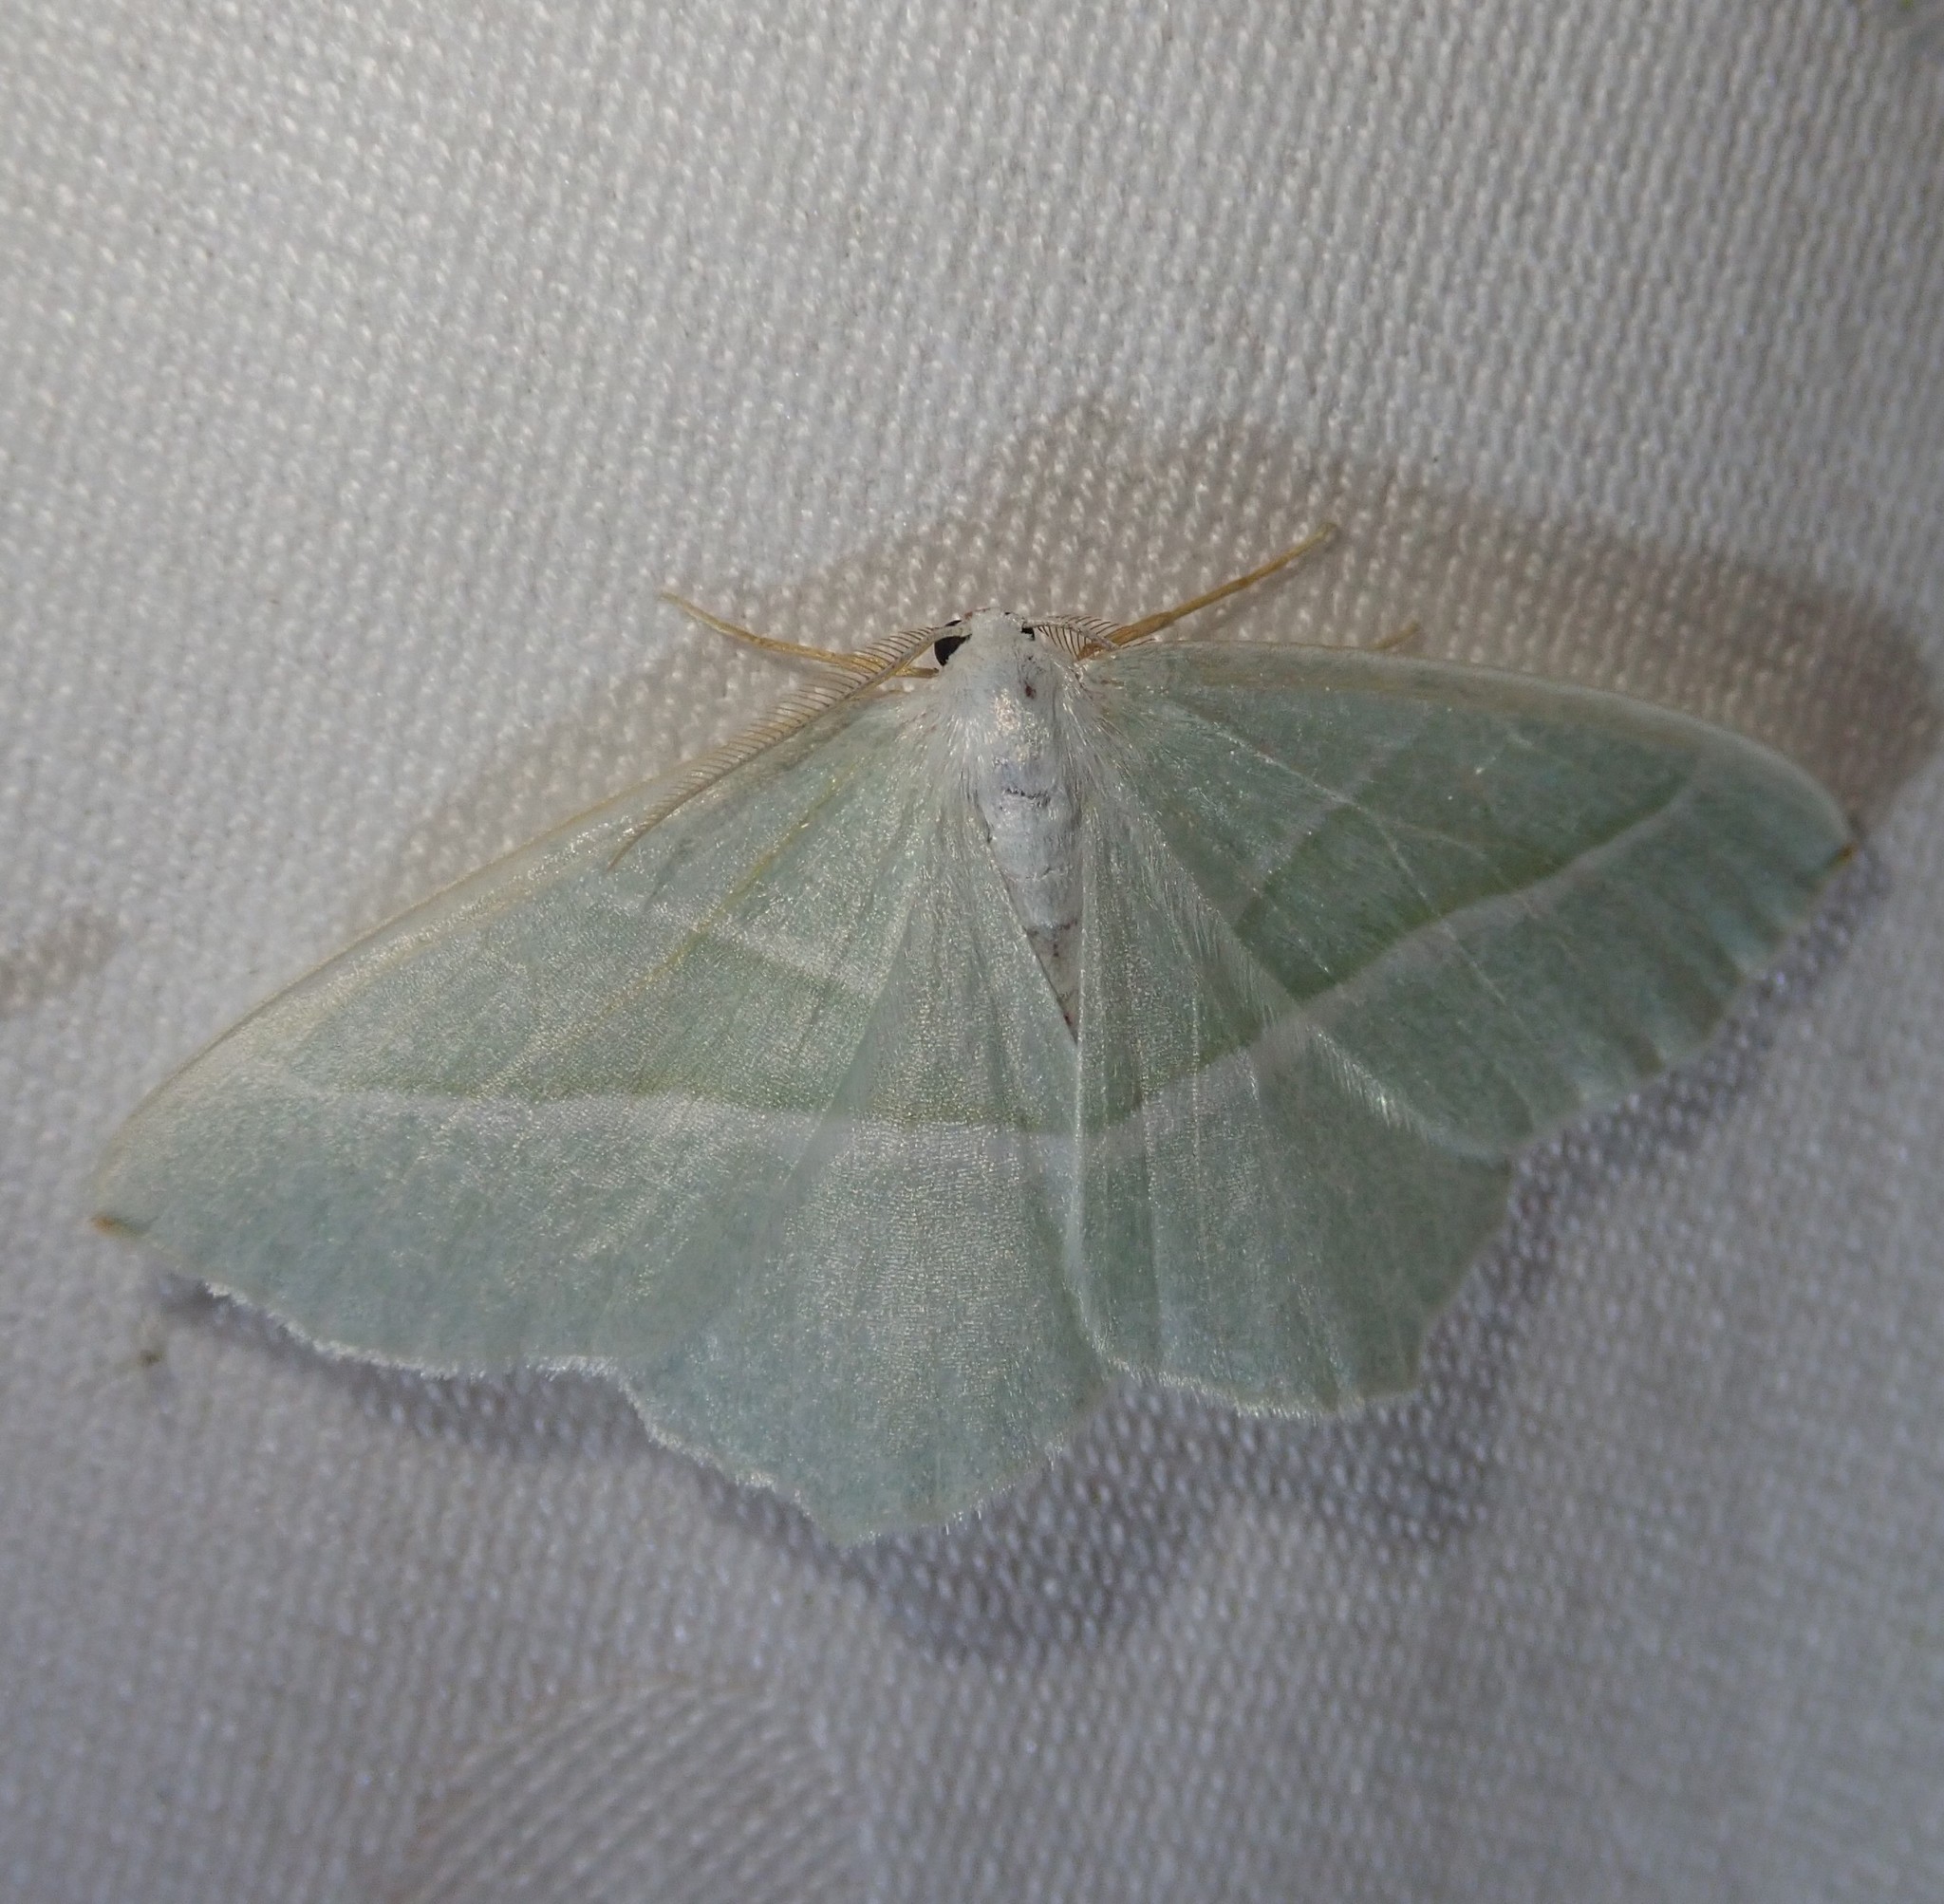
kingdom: Animalia
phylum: Arthropoda
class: Insecta
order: Lepidoptera
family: Geometridae
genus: Campaea
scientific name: Campaea margaritaria
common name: Light emerald
